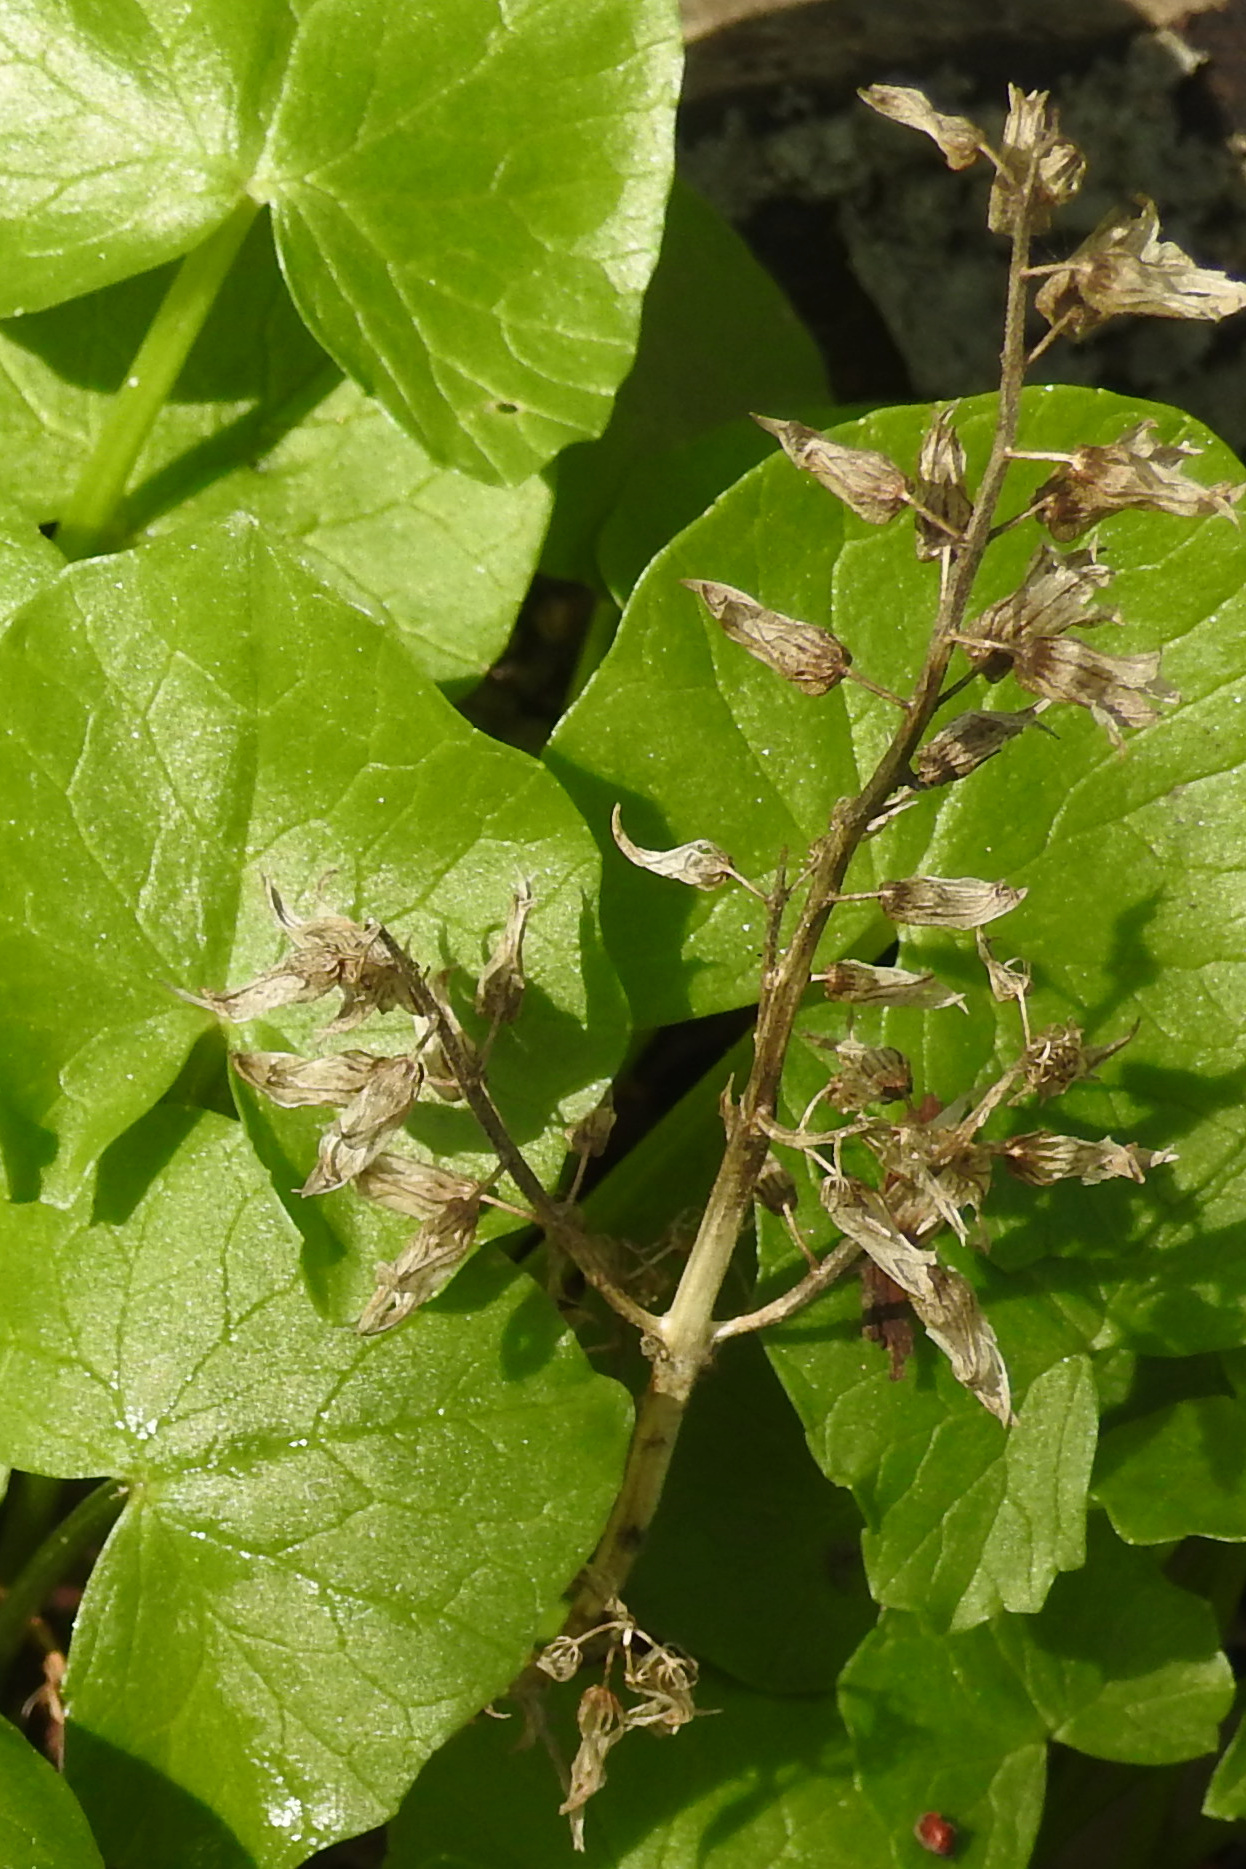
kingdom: Plantae
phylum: Tracheophyta
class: Magnoliopsida
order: Lamiales
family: Lamiaceae
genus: Perilla
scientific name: Perilla frutescens
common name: Perilla
